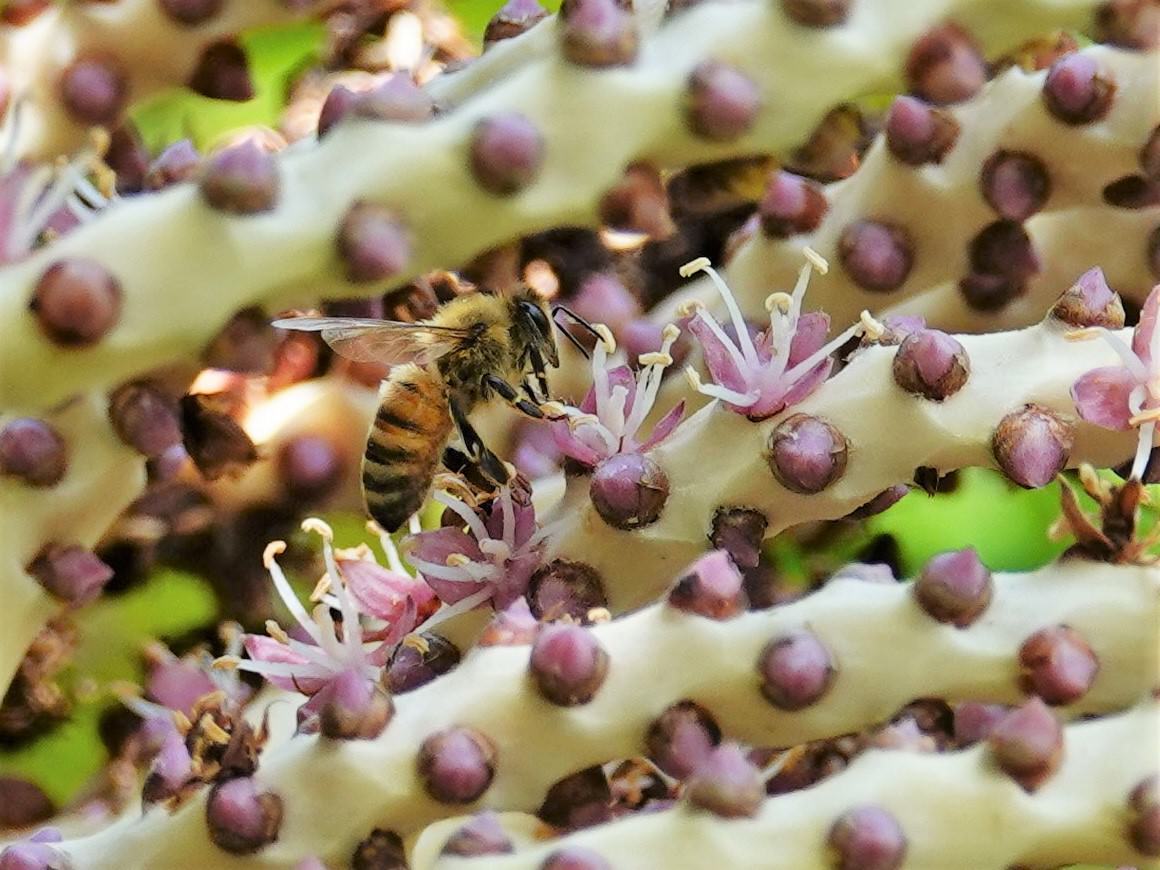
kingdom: Animalia
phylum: Arthropoda
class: Insecta
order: Hymenoptera
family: Apidae
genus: Apis
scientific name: Apis mellifera
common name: Honey bee
